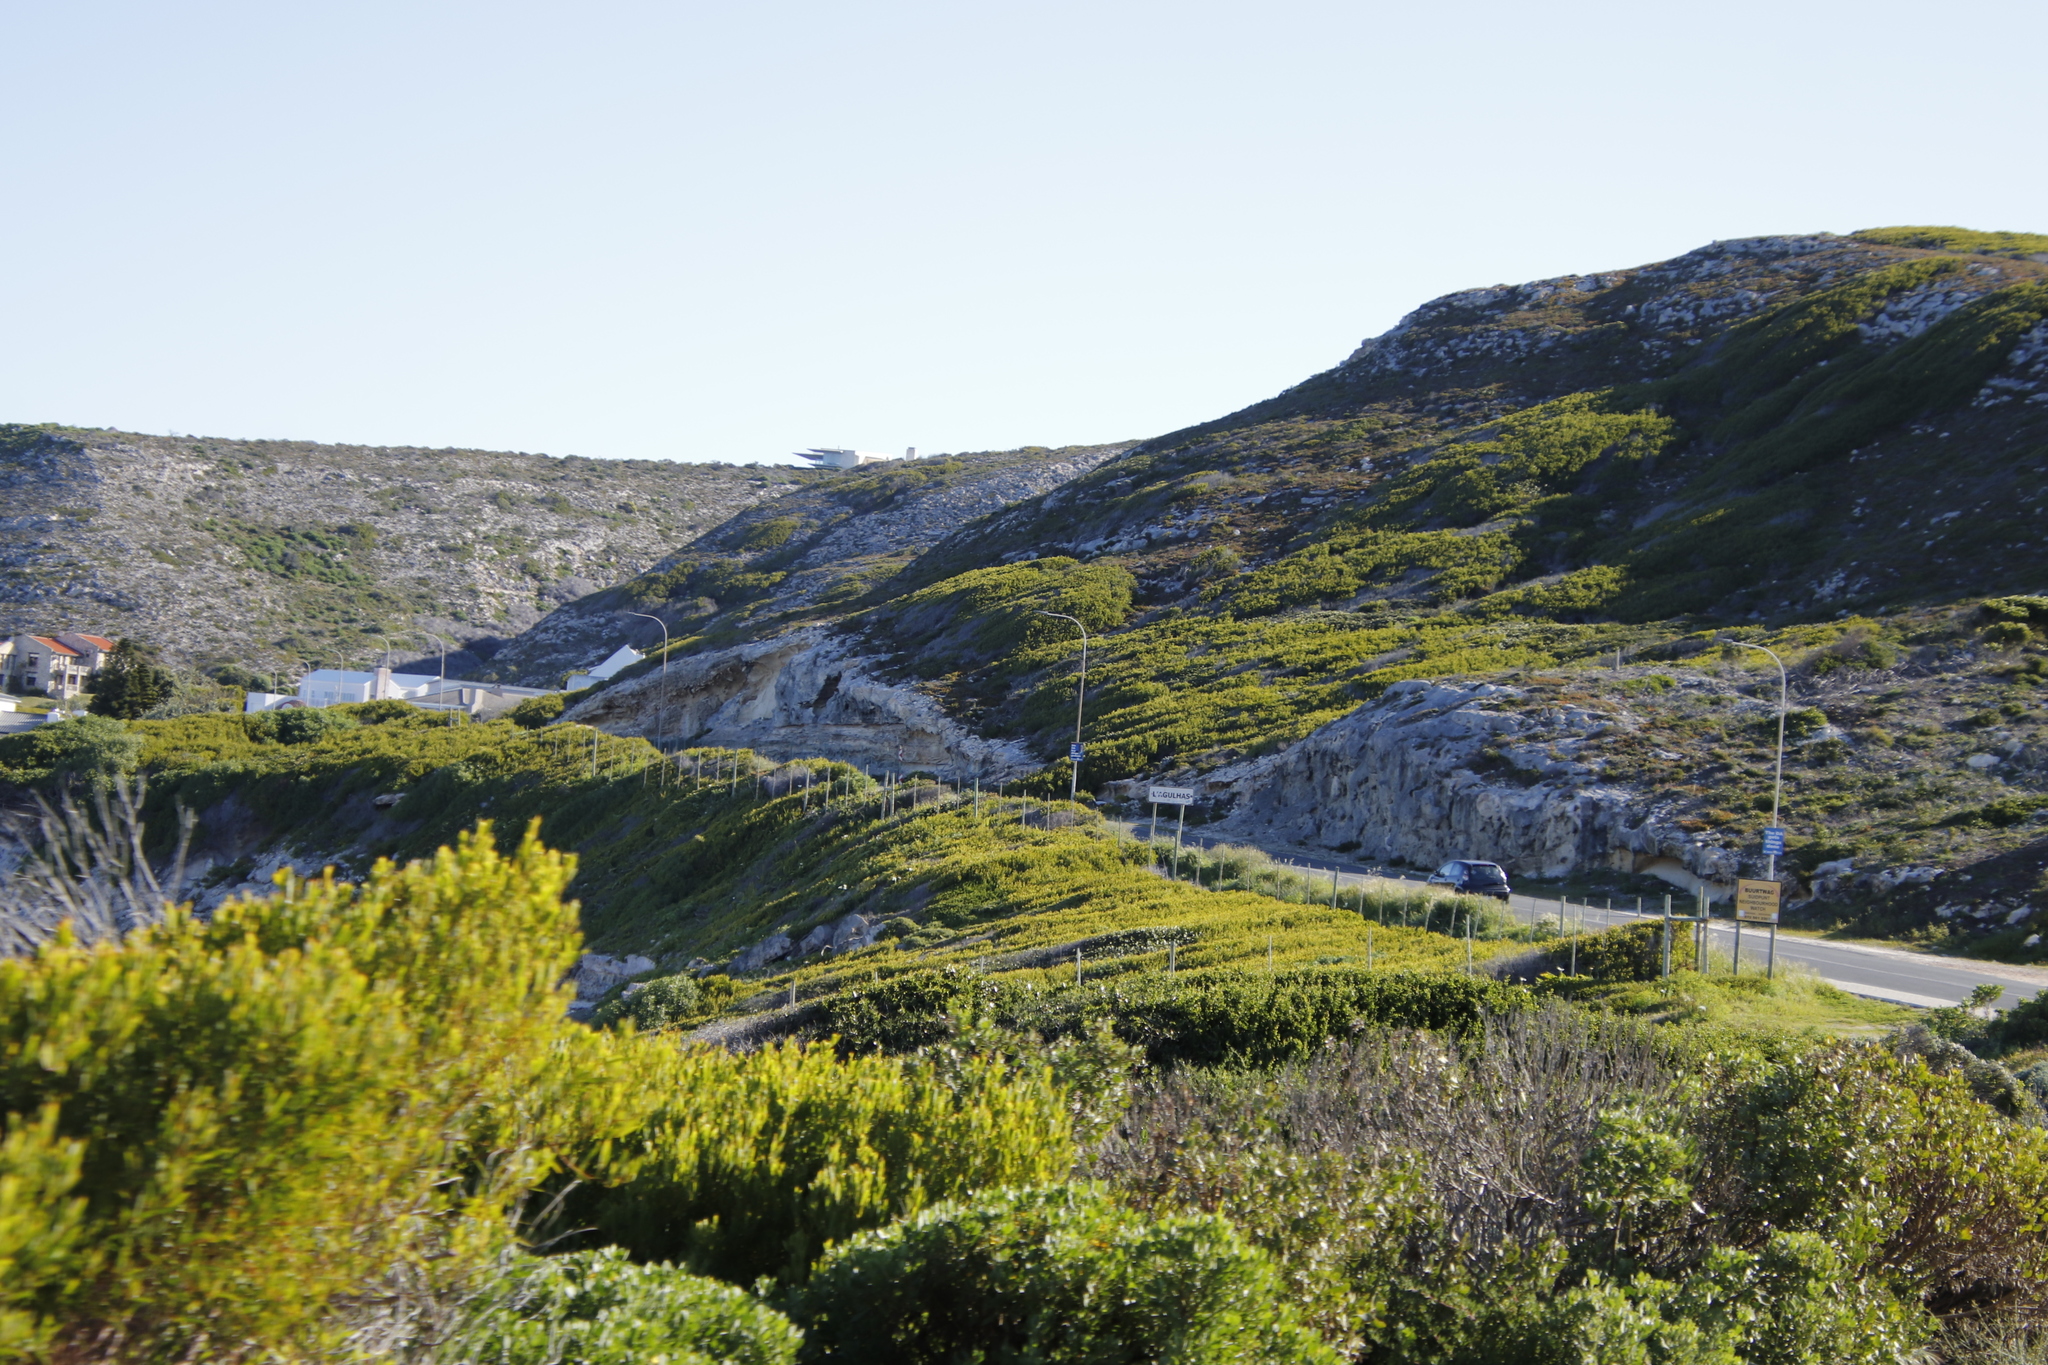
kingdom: Plantae
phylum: Tracheophyta
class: Magnoliopsida
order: Fabales
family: Fabaceae
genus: Acacia
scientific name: Acacia cyclops
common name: Coastal wattle
